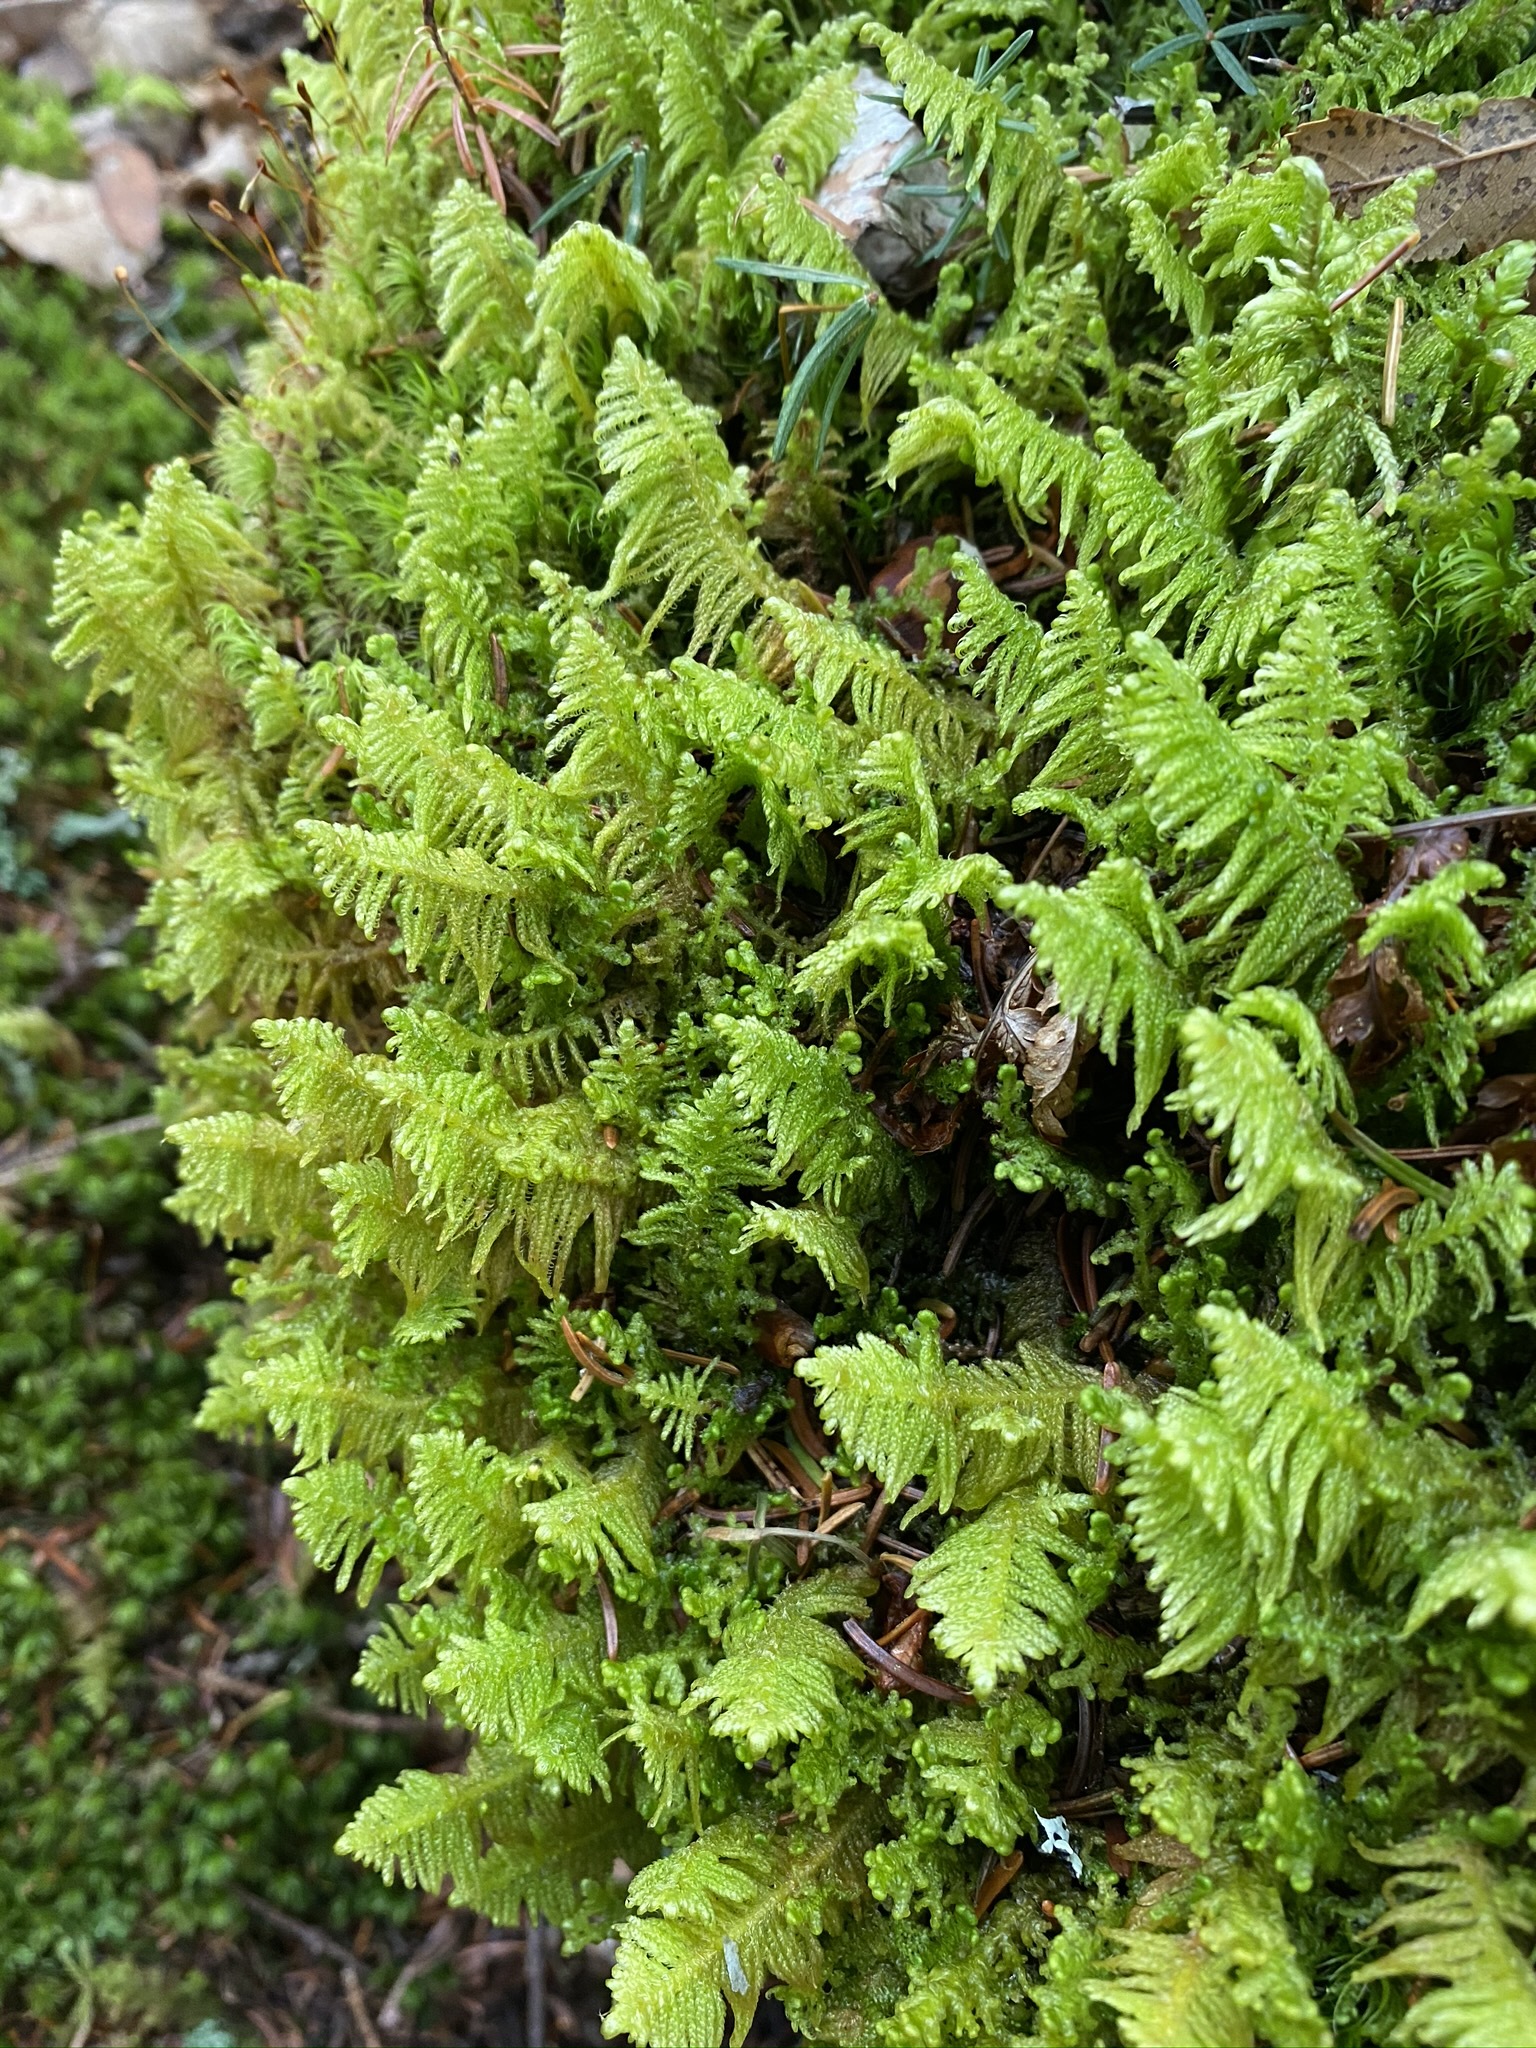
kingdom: Plantae
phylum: Bryophyta
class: Bryopsida
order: Hypnales
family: Pylaisiaceae
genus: Ptilium
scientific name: Ptilium crista-castrensis
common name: Knight's plume moss
